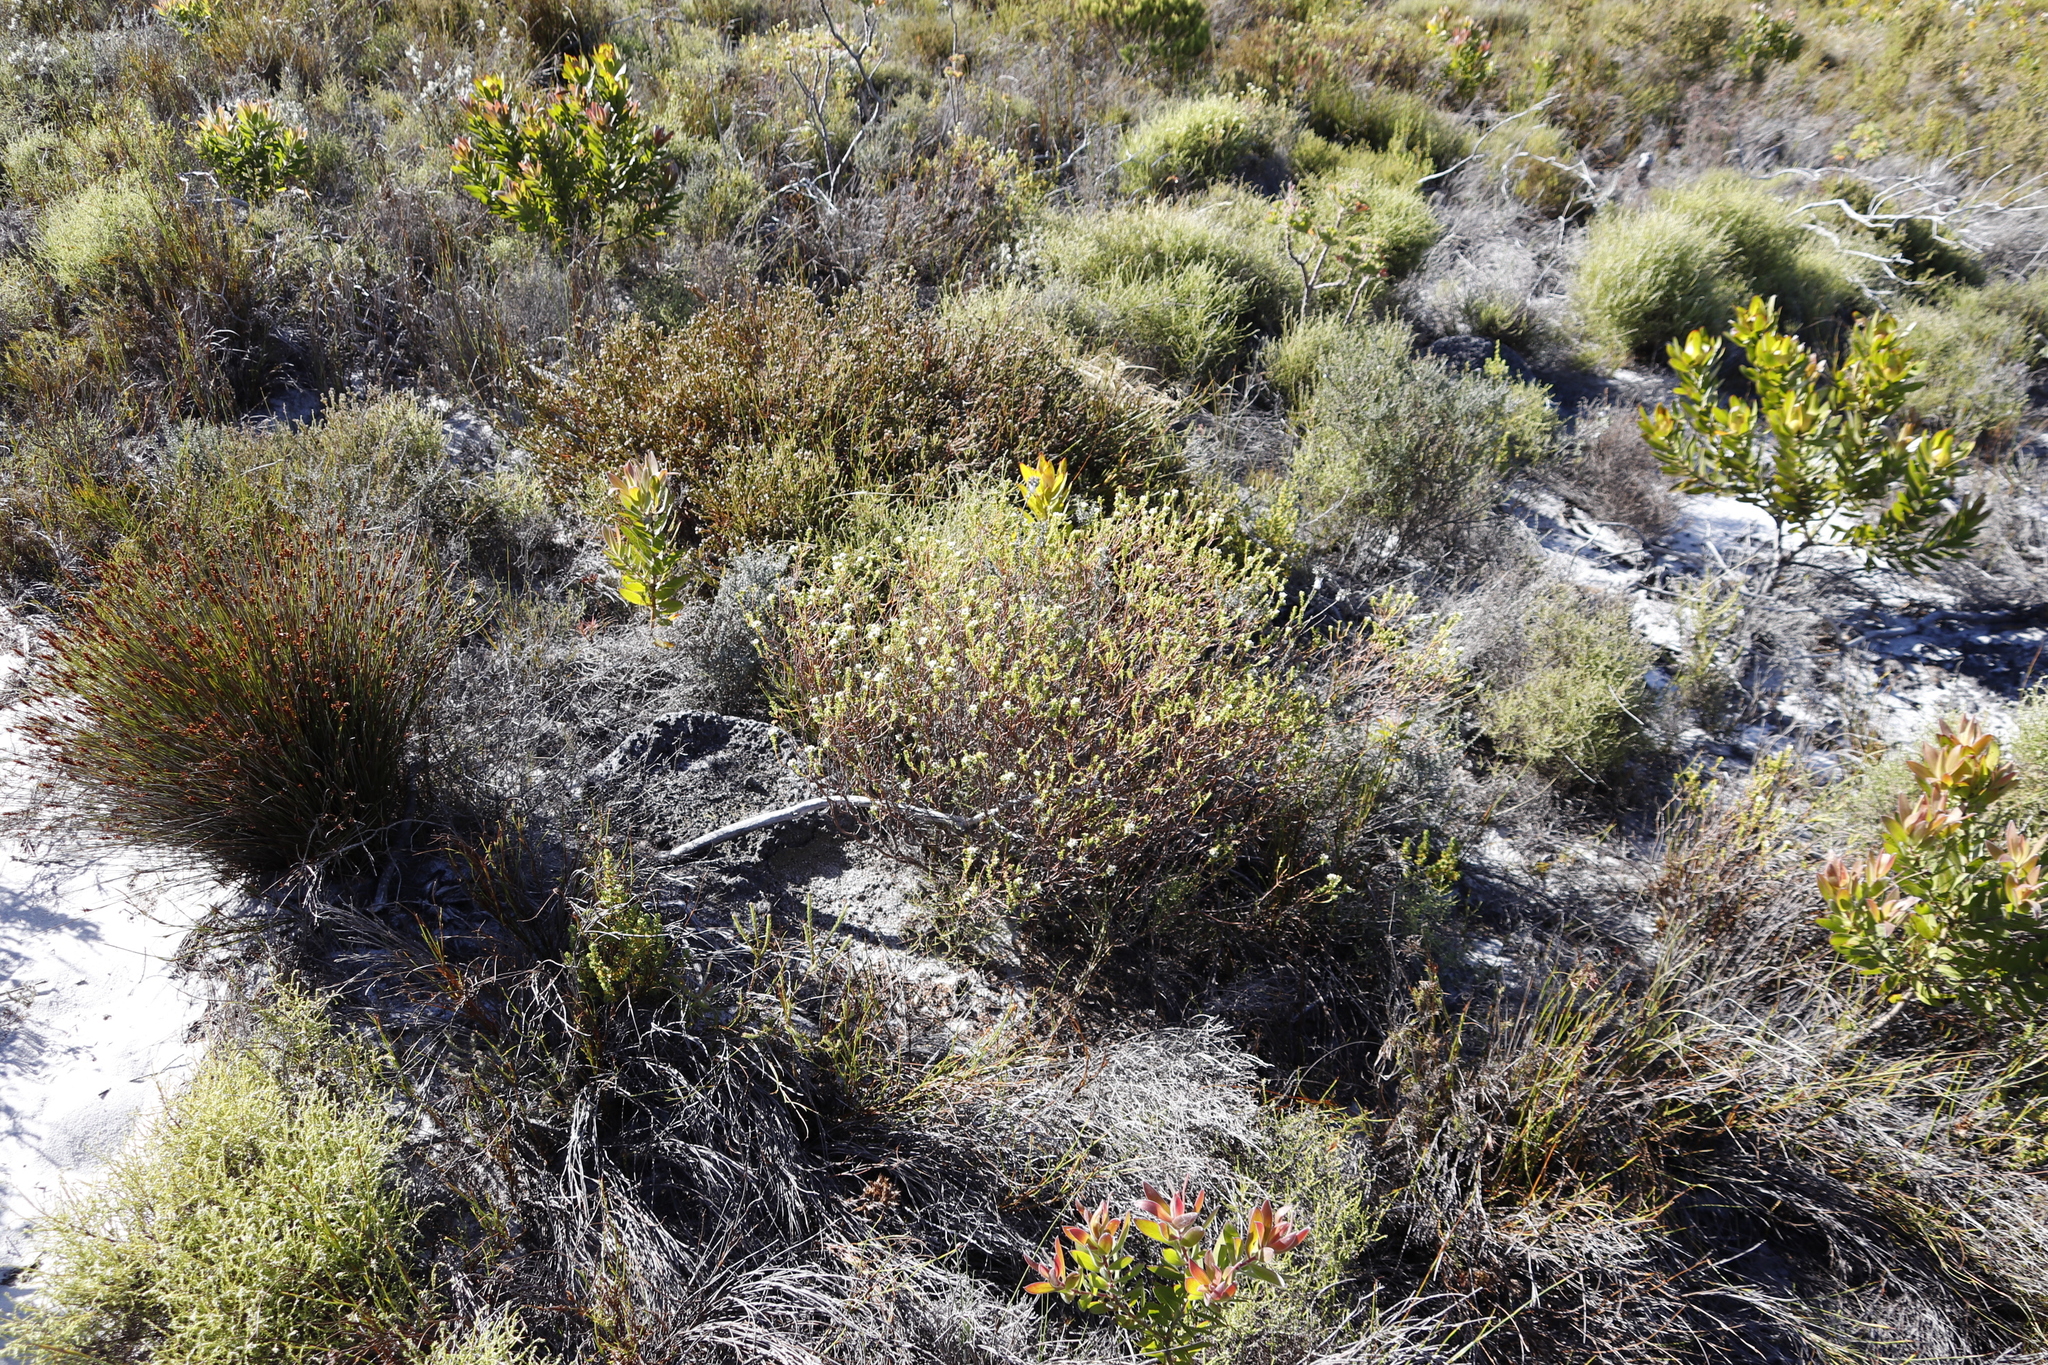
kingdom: Plantae
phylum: Tracheophyta
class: Magnoliopsida
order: Sapindales
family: Rutaceae
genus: Diosma
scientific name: Diosma oppositifolia
